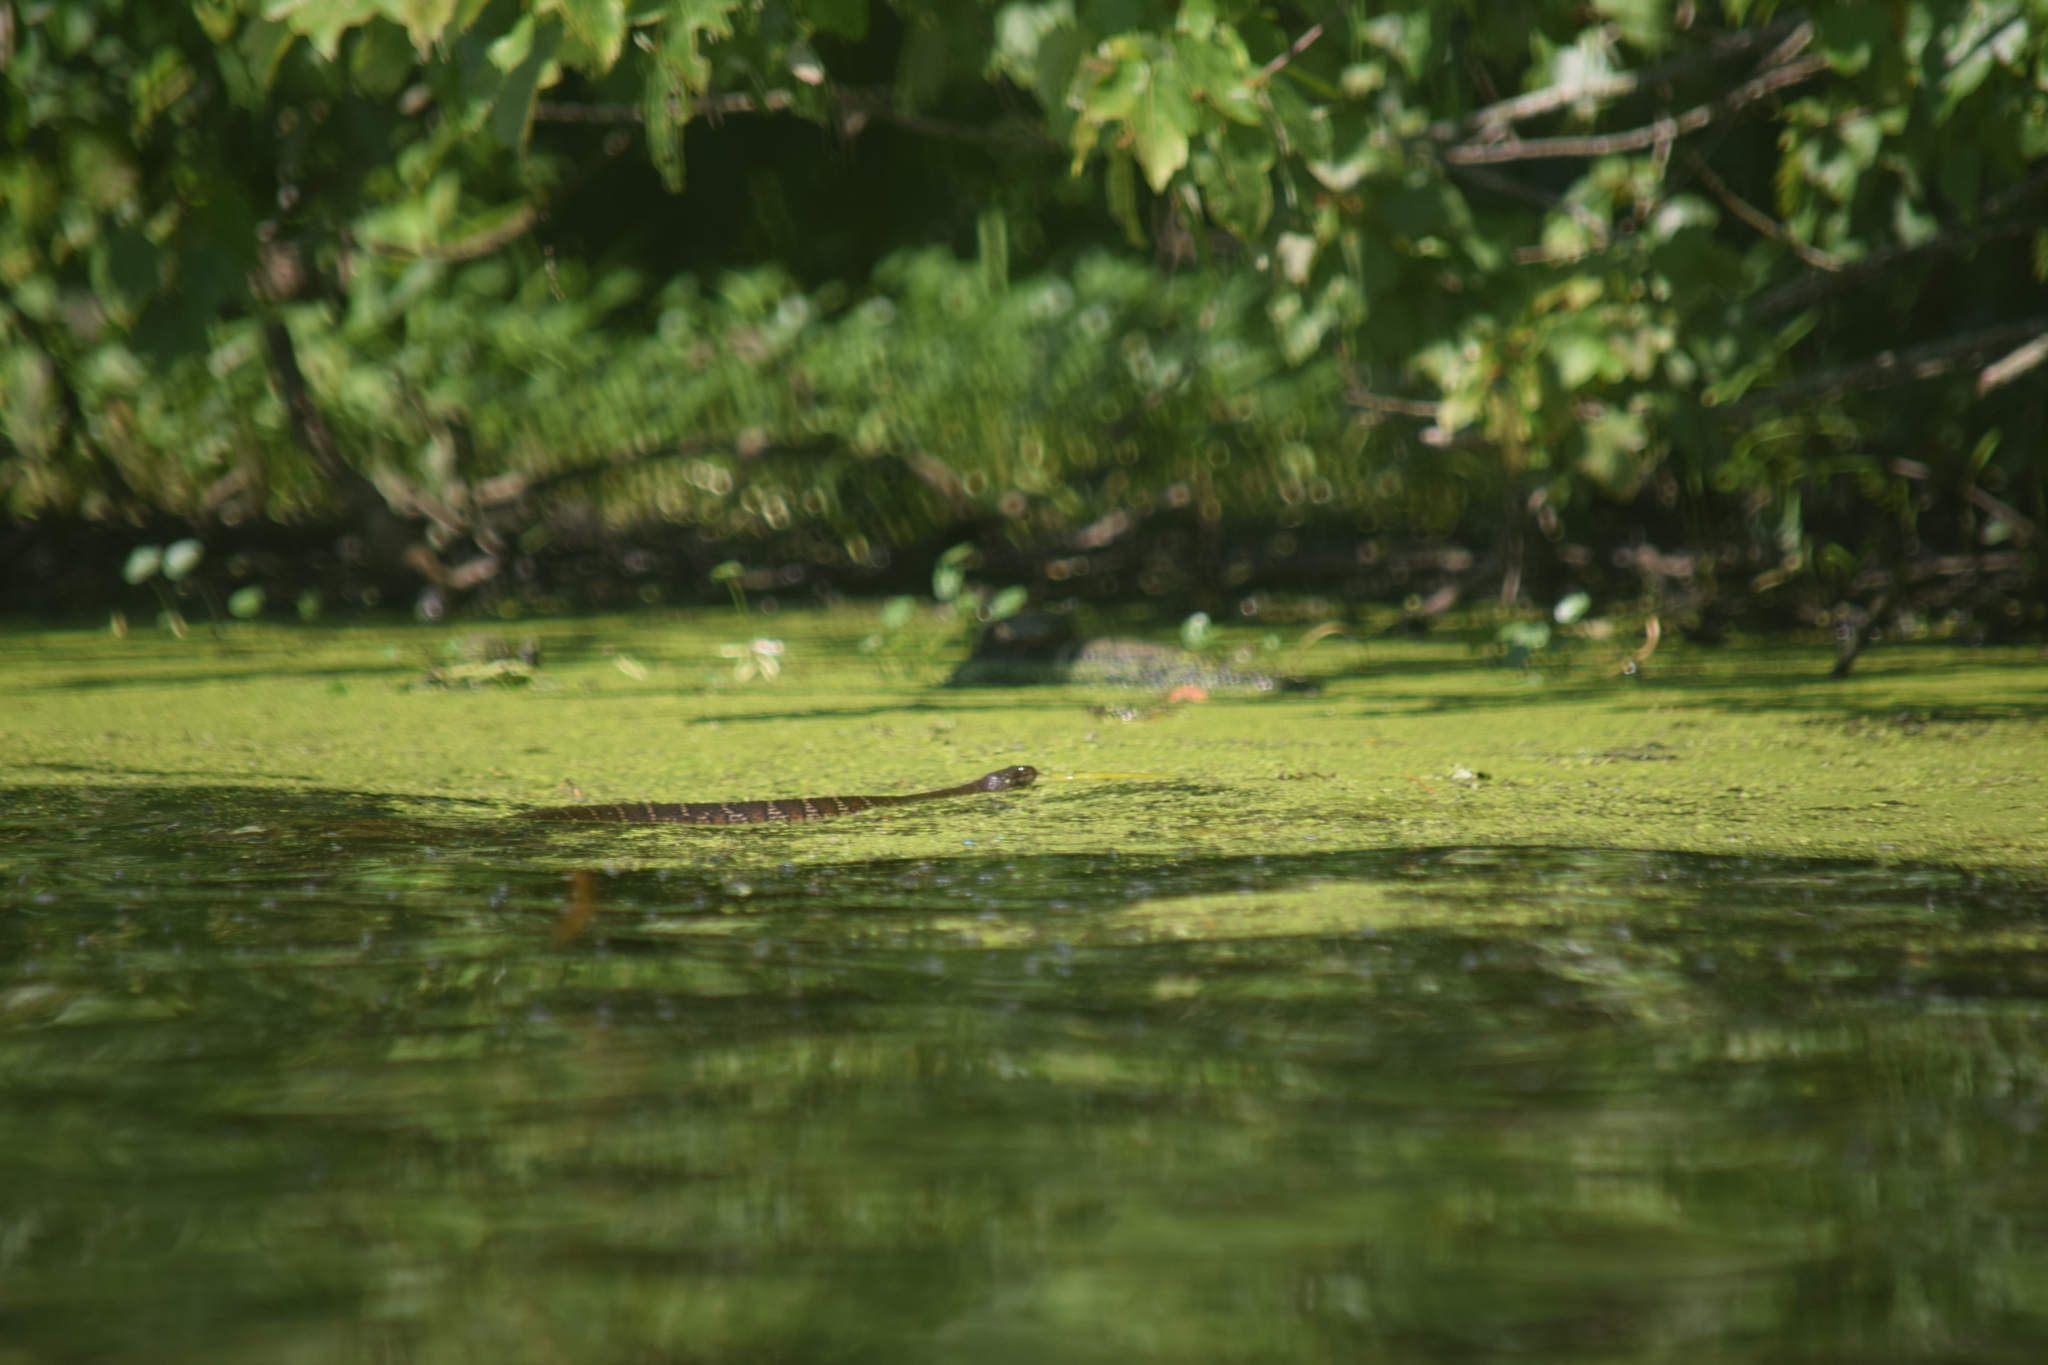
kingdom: Animalia
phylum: Chordata
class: Squamata
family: Colubridae
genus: Nerodia
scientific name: Nerodia sipedon
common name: Northern water snake
